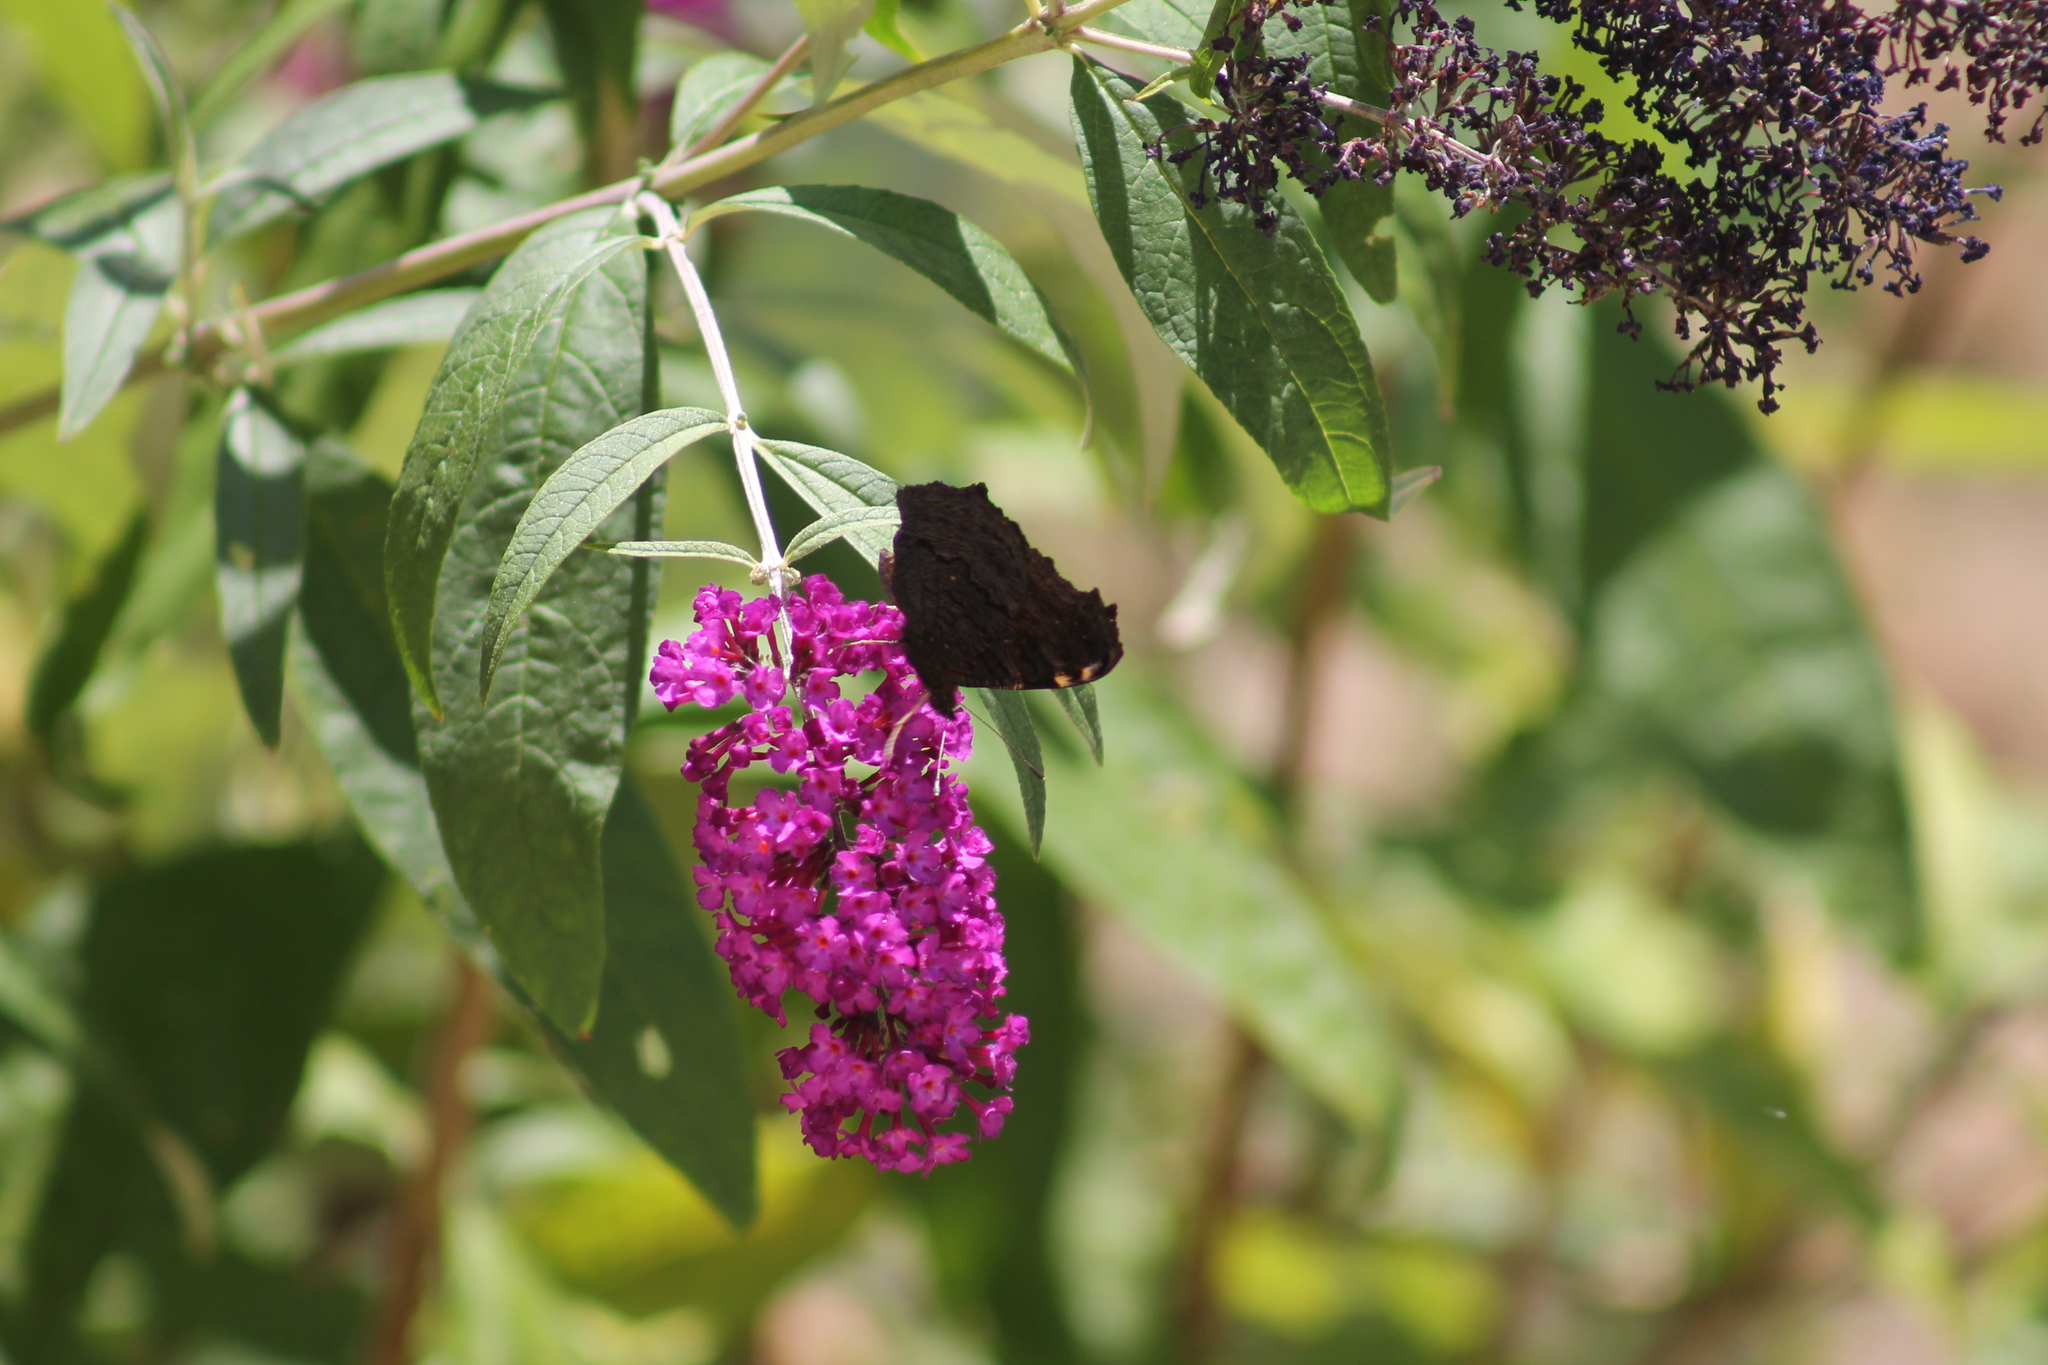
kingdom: Animalia
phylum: Arthropoda
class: Insecta
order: Lepidoptera
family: Nymphalidae
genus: Aglais
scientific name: Aglais io
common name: Peacock
